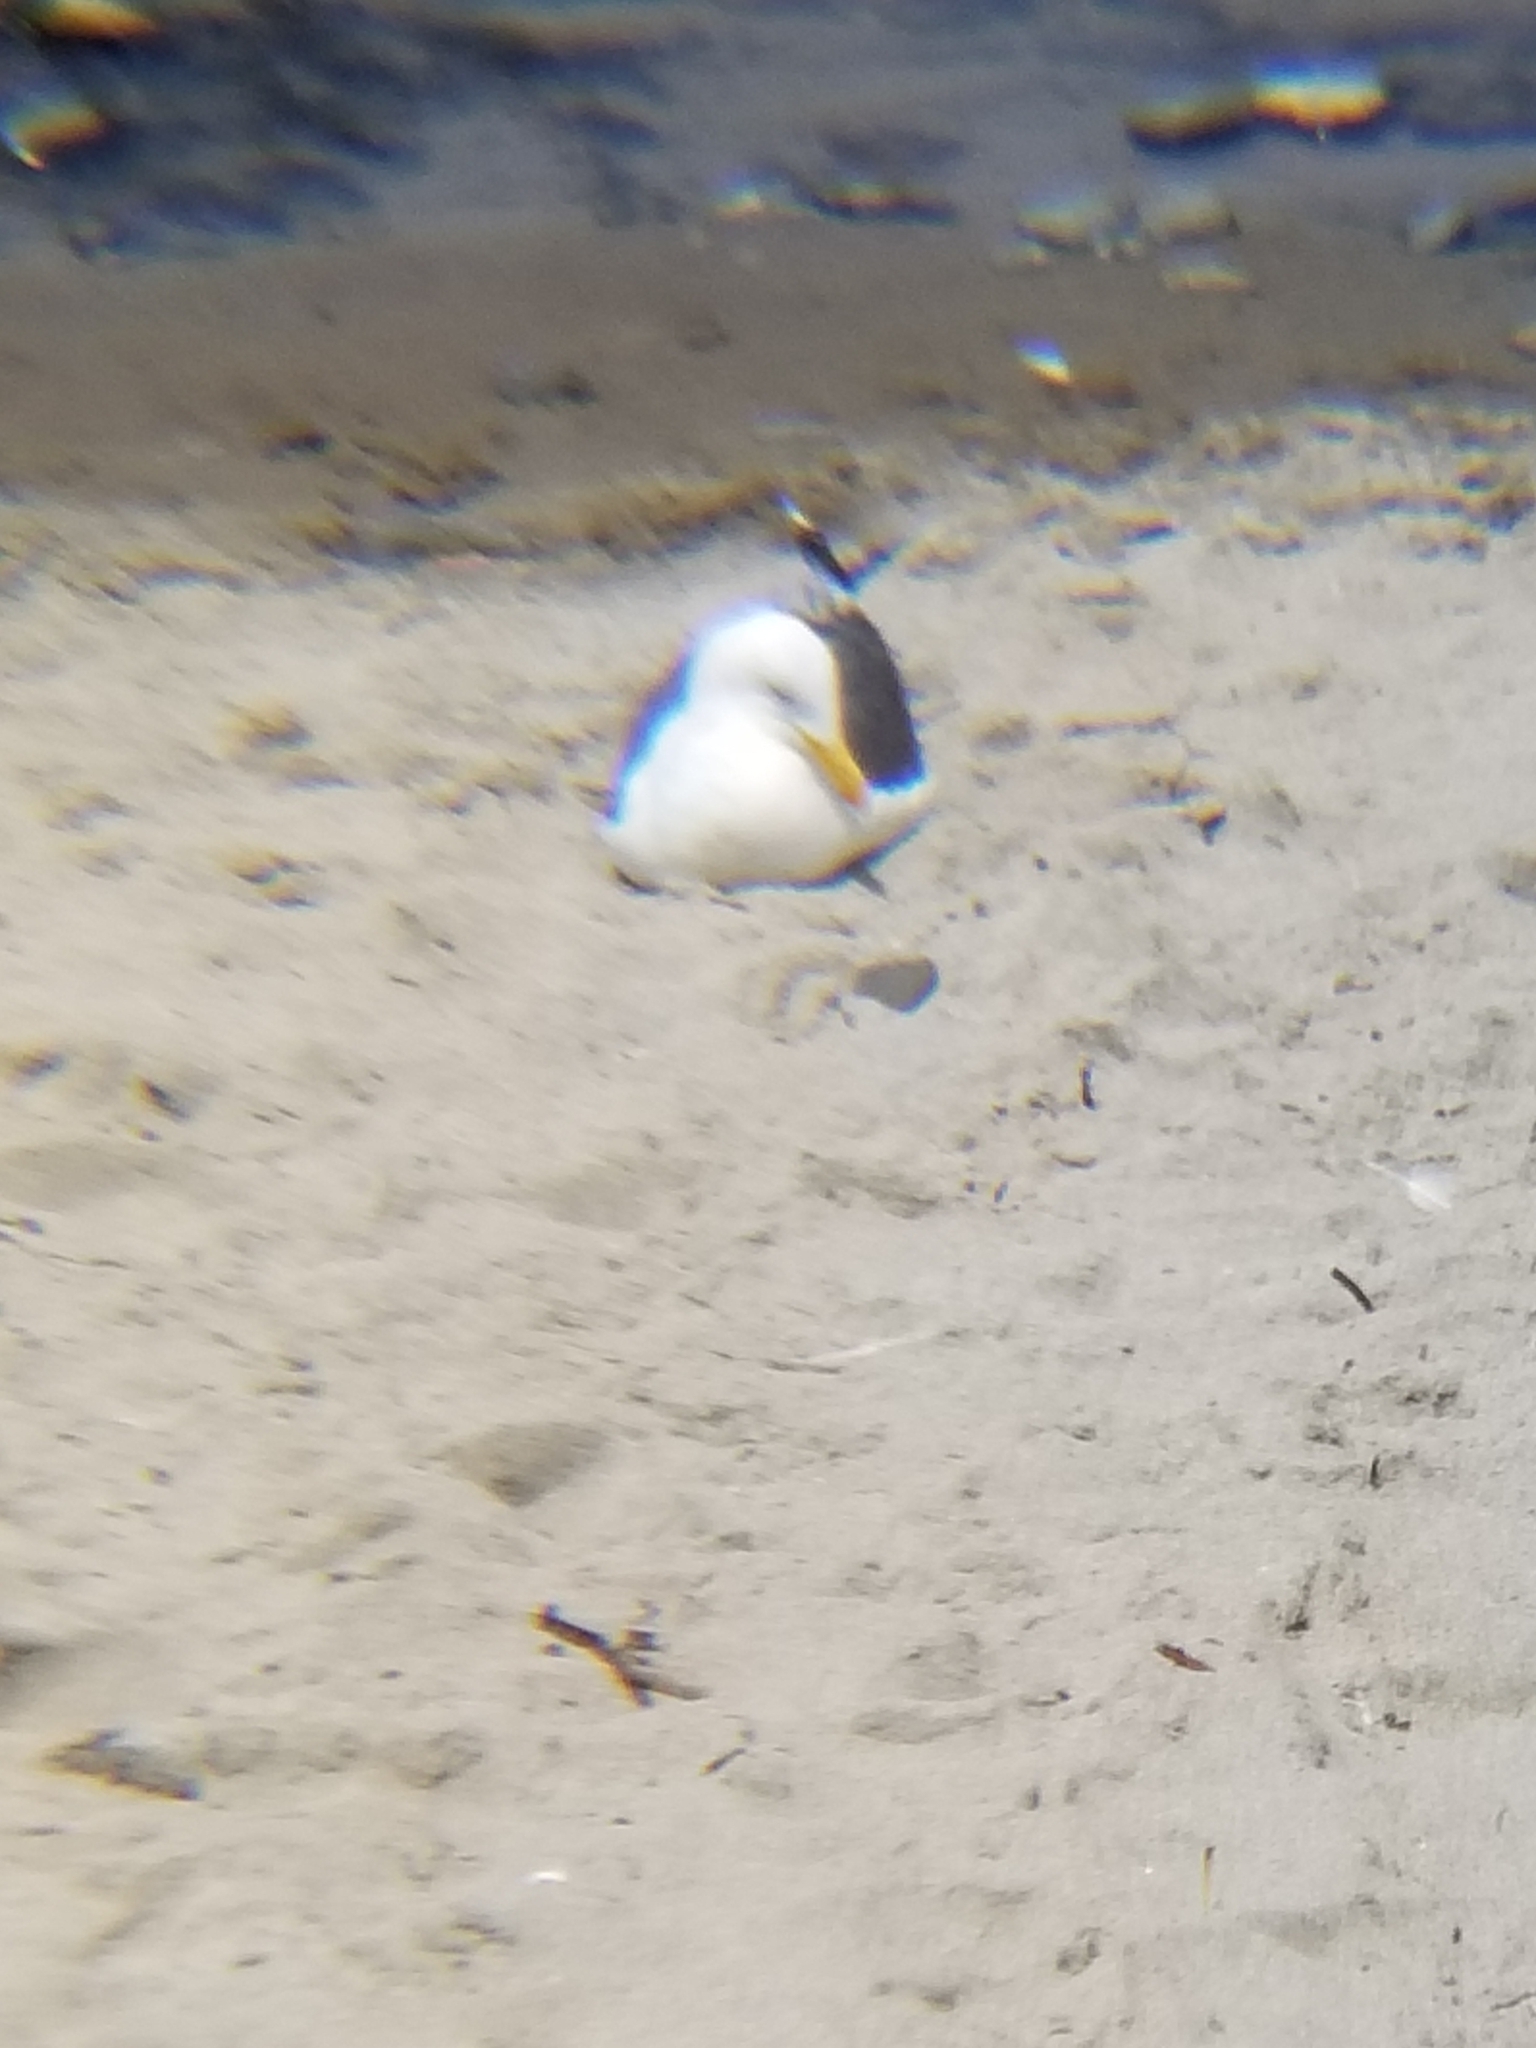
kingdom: Animalia
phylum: Chordata
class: Aves
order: Charadriiformes
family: Laridae
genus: Larus
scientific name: Larus occidentalis
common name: Western gull
